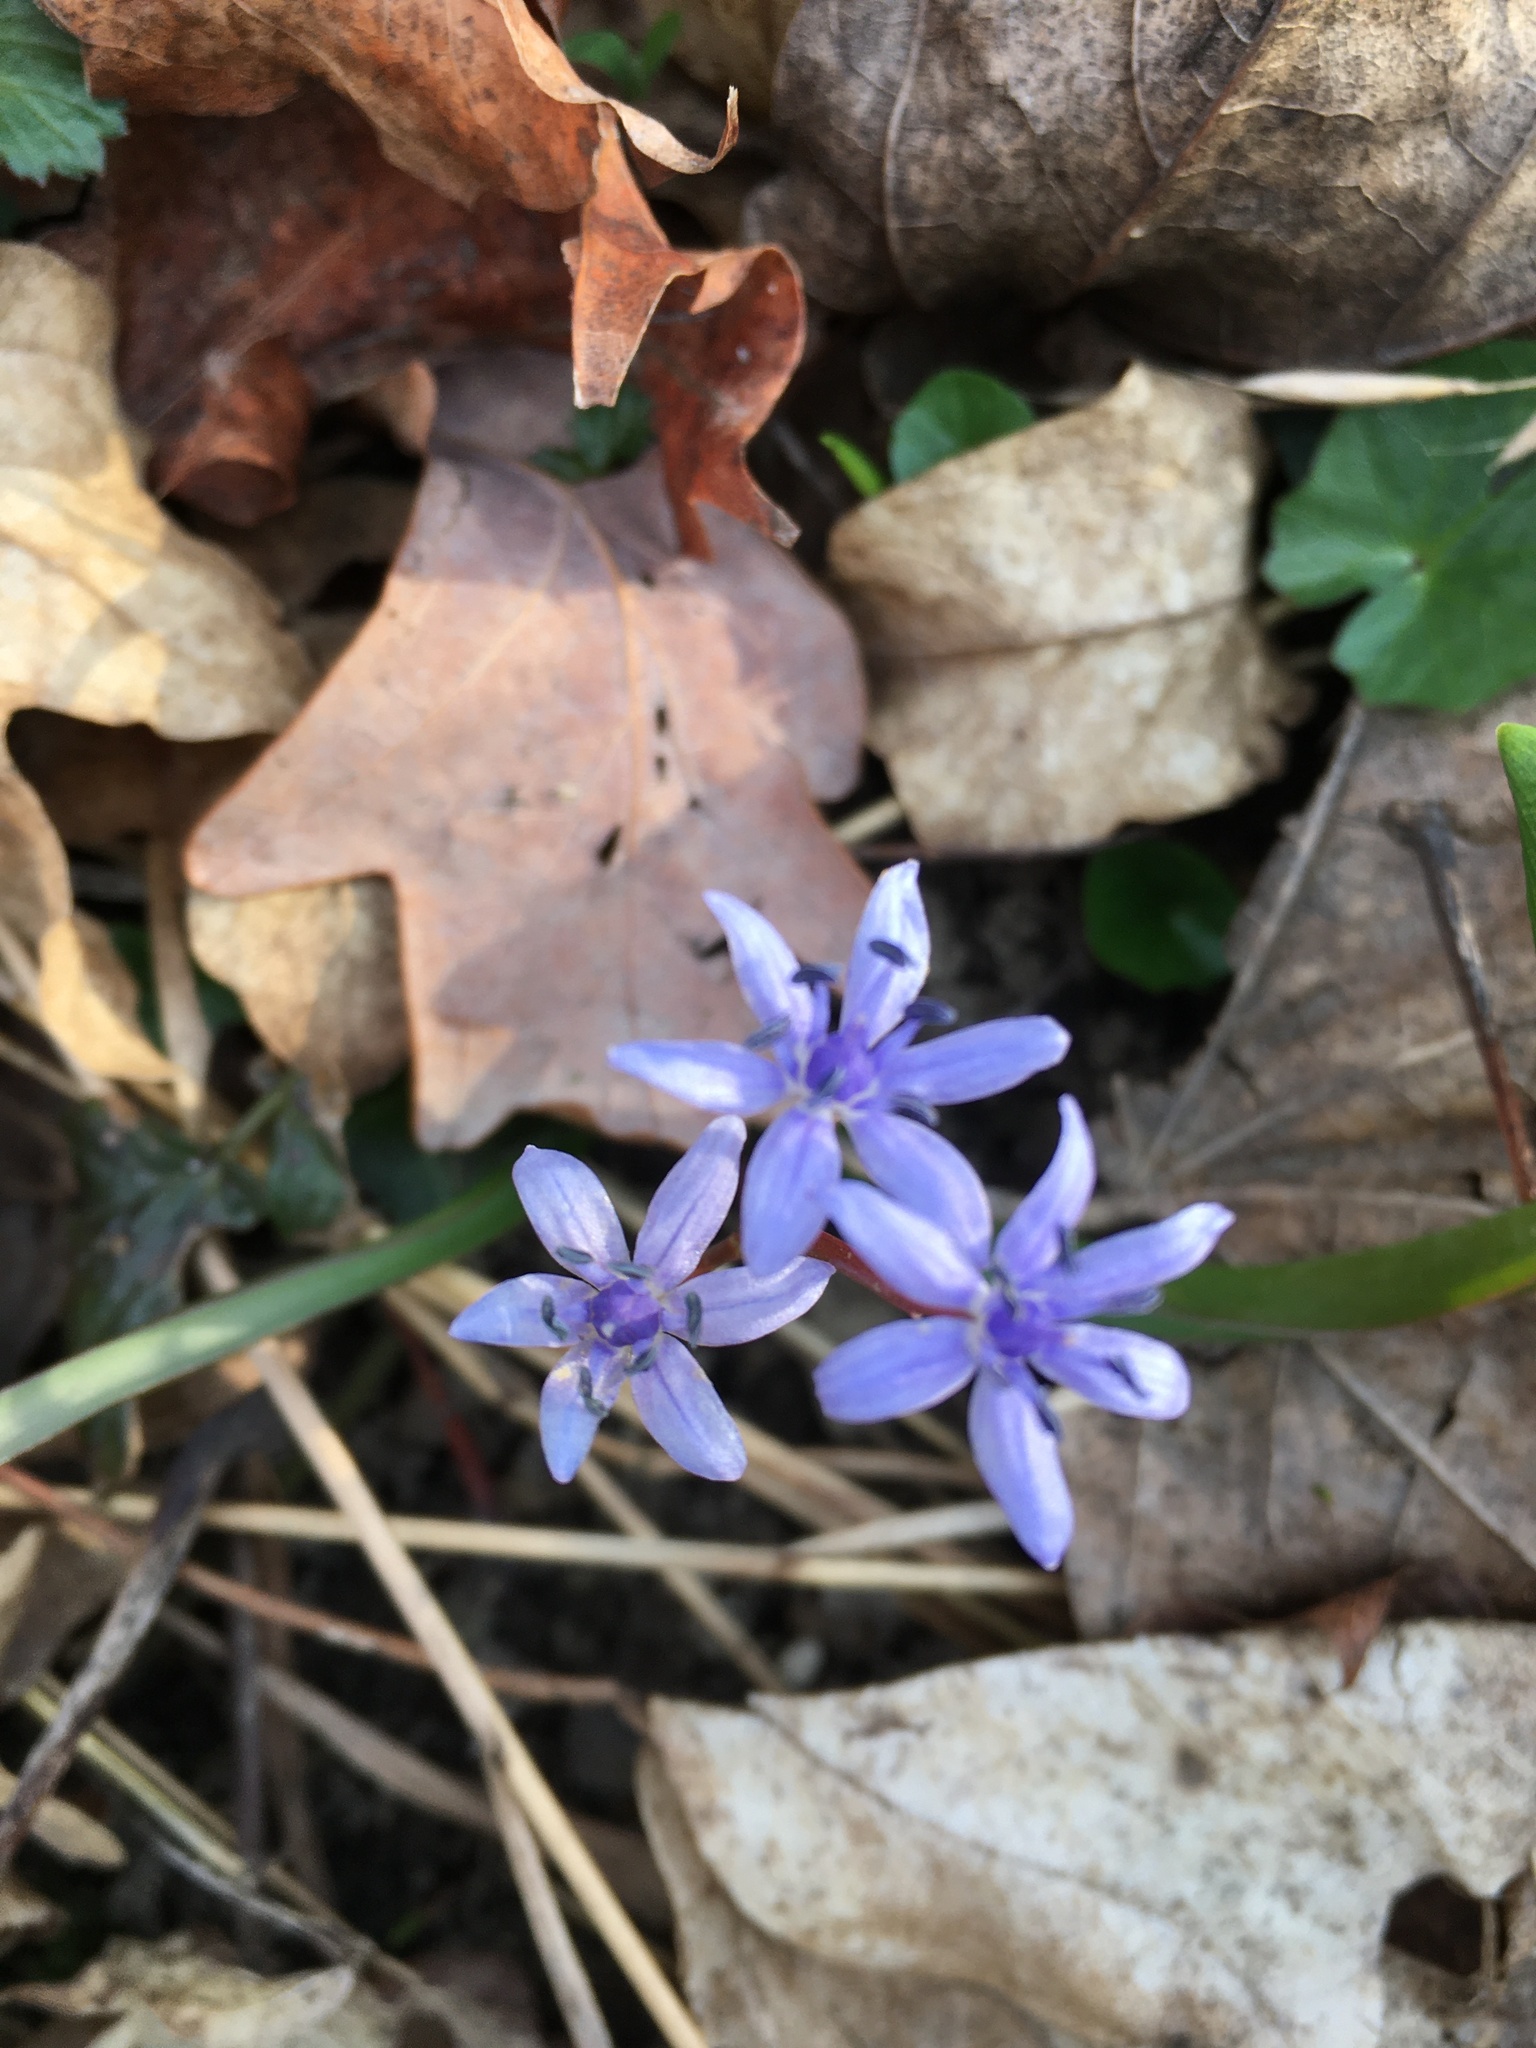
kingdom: Plantae
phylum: Tracheophyta
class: Liliopsida
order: Asparagales
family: Asparagaceae
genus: Scilla
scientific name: Scilla vindobonensis
